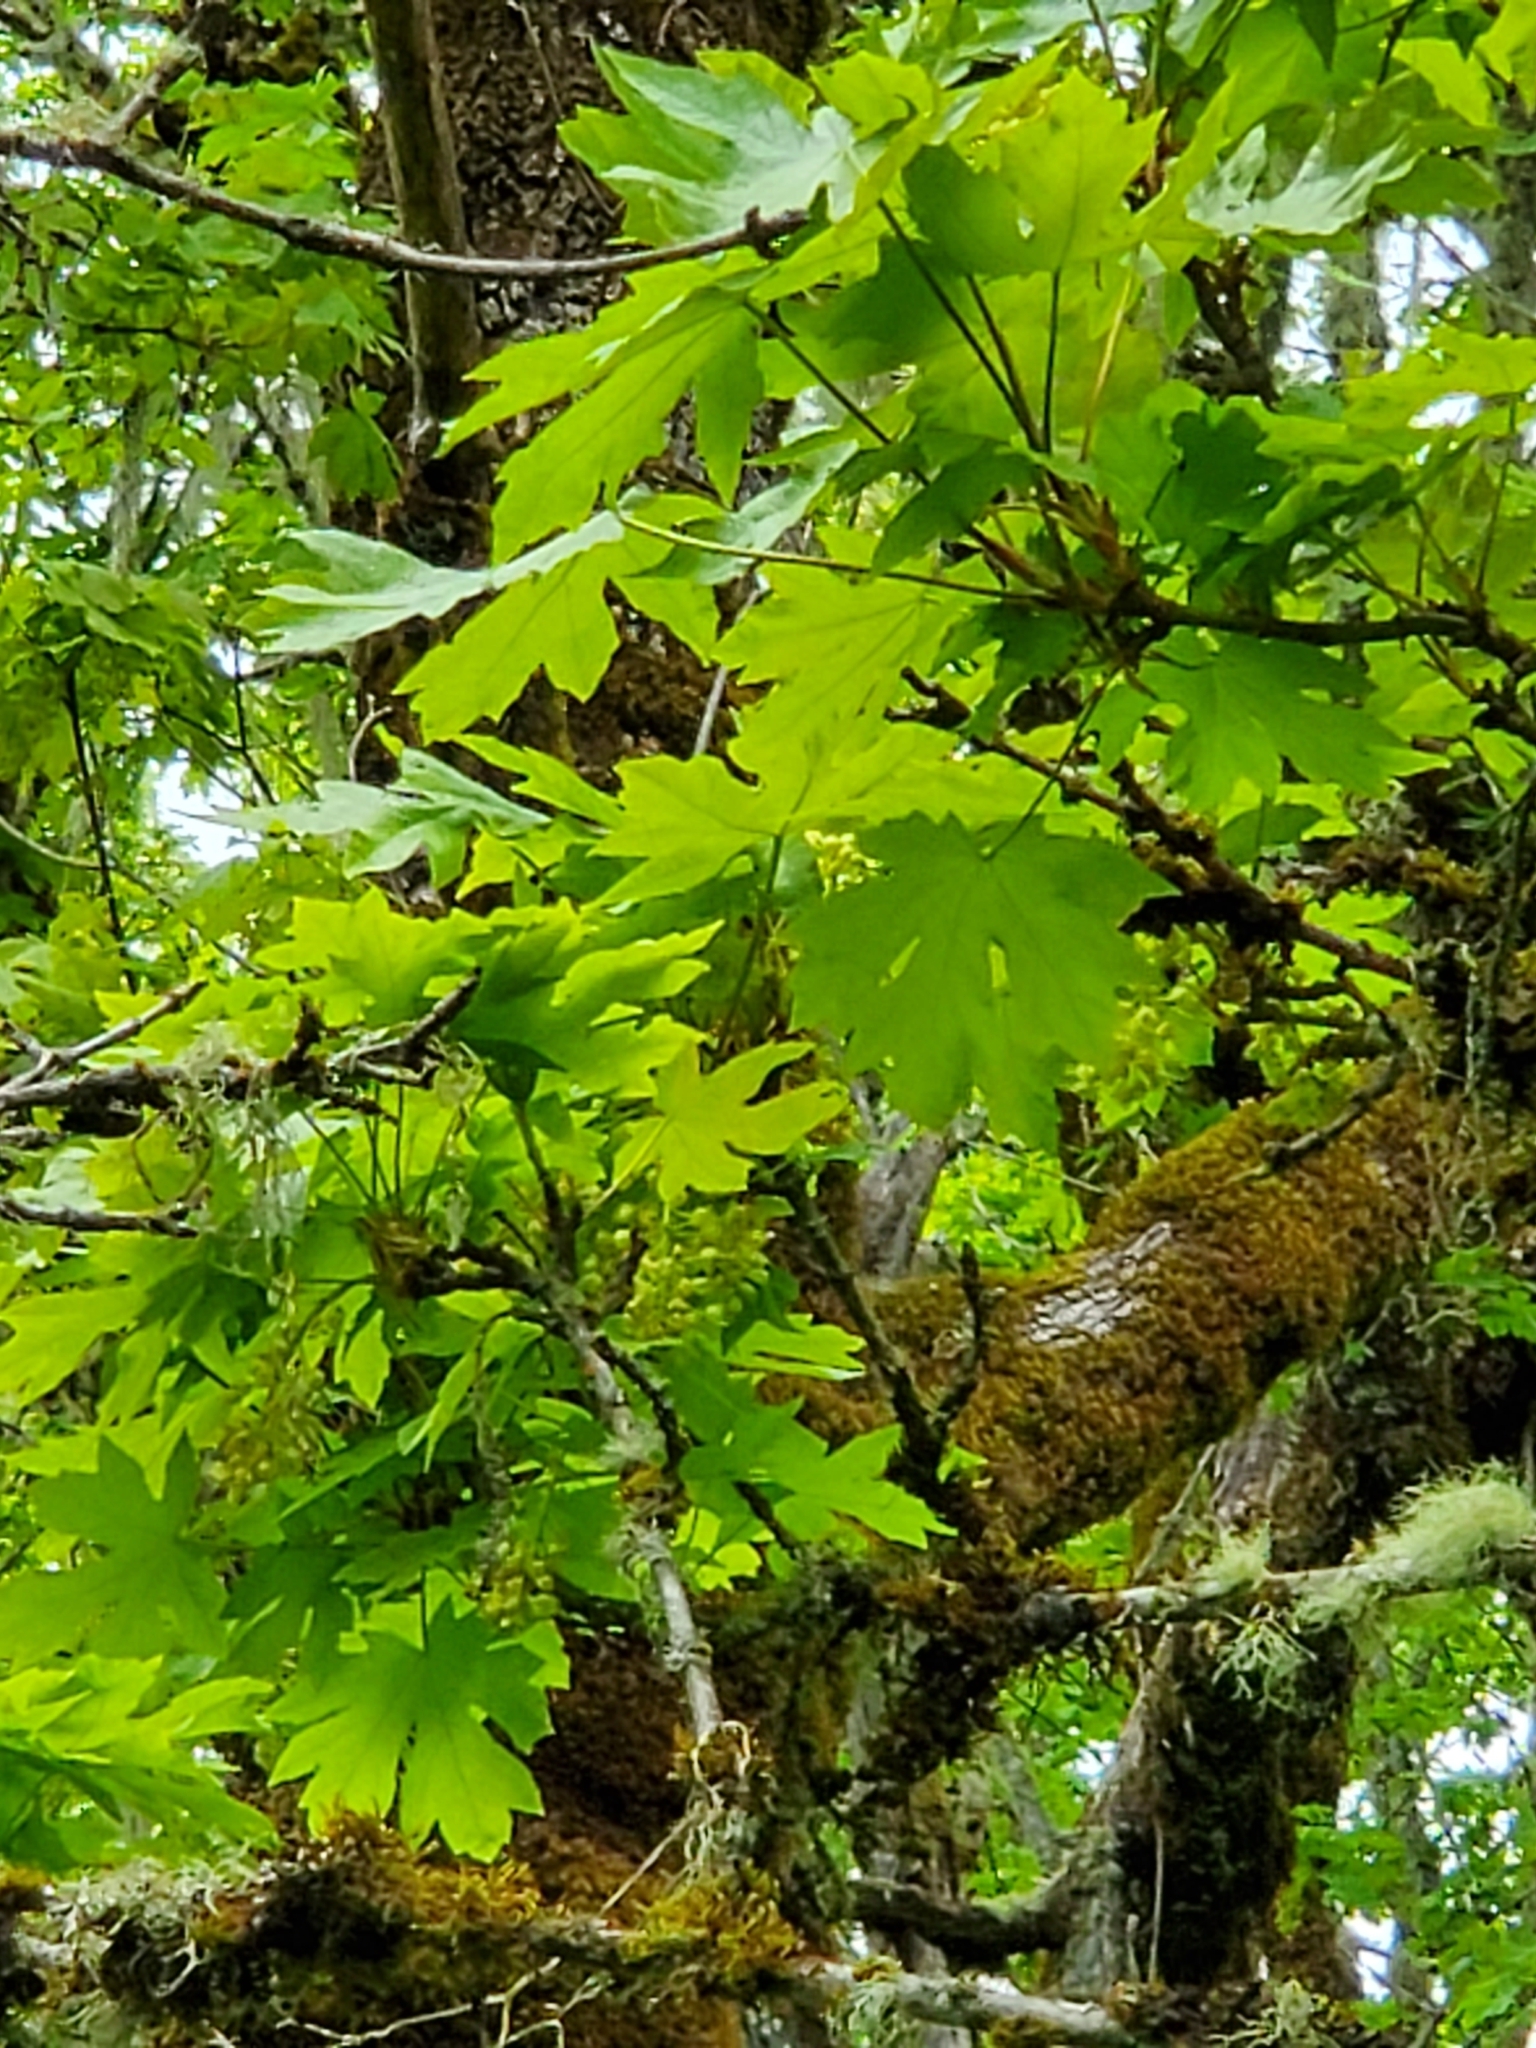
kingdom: Plantae
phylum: Tracheophyta
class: Magnoliopsida
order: Sapindales
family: Sapindaceae
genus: Acer
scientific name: Acer macrophyllum
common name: Oregon maple
